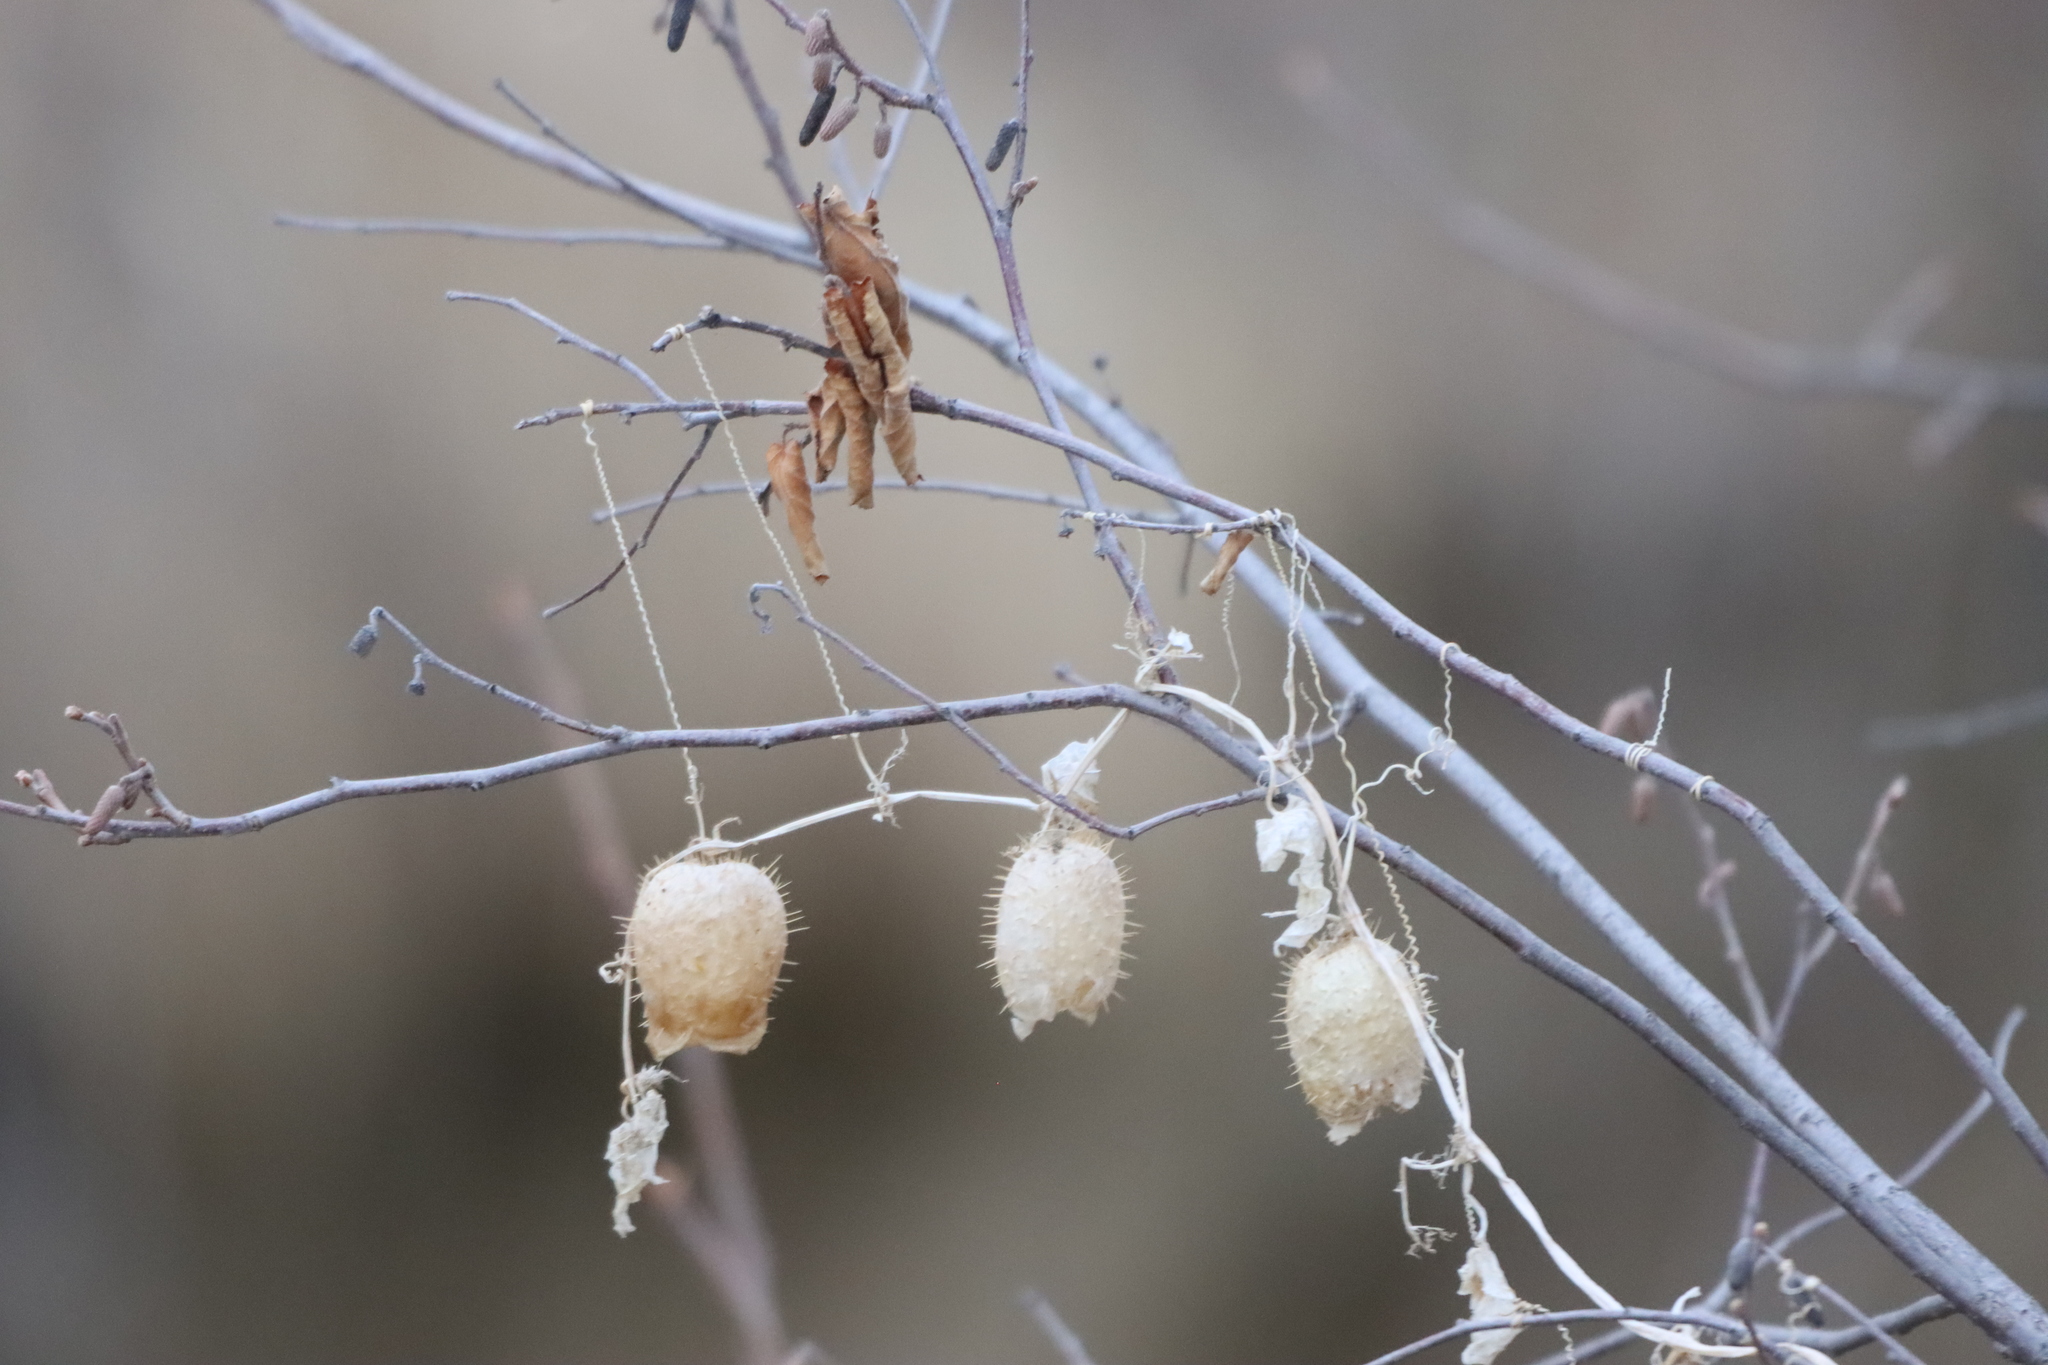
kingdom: Plantae
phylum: Tracheophyta
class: Magnoliopsida
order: Cucurbitales
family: Cucurbitaceae
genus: Echinocystis
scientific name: Echinocystis lobata
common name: Wild cucumber
